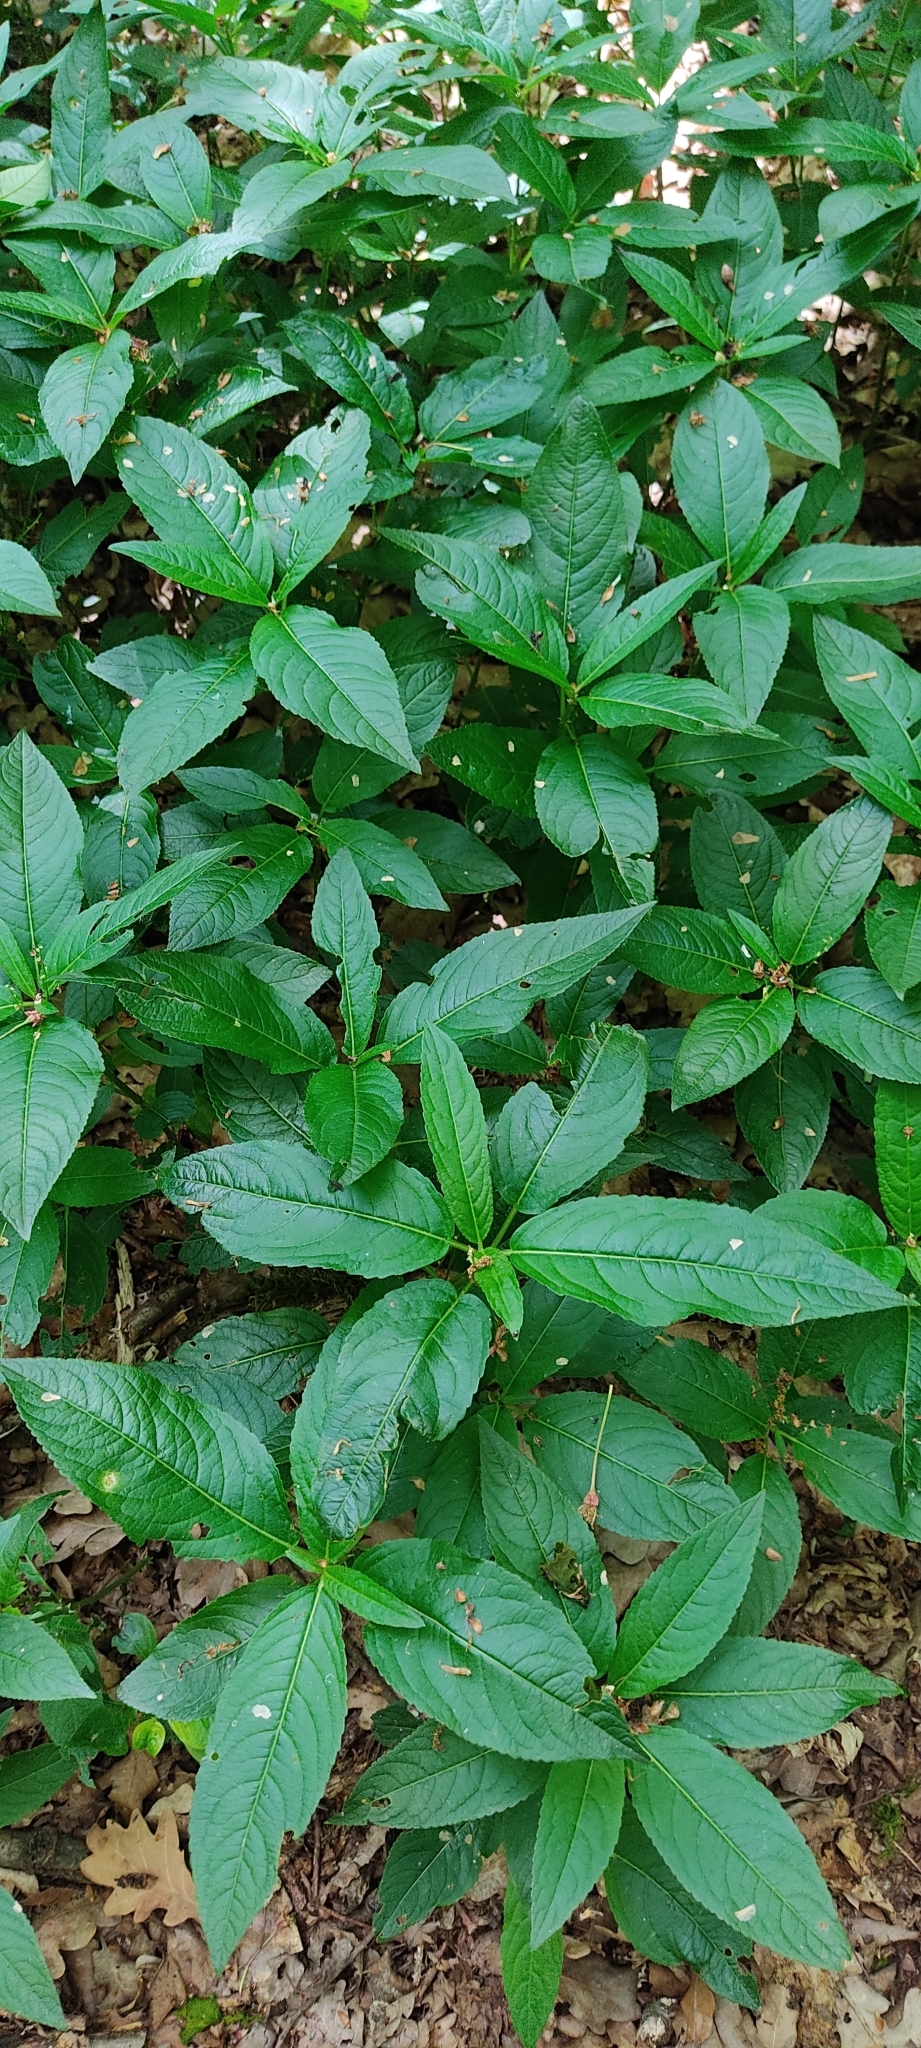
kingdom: Plantae
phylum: Tracheophyta
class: Magnoliopsida
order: Malpighiales
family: Euphorbiaceae
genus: Mercurialis
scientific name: Mercurialis perennis
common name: Dog mercury
